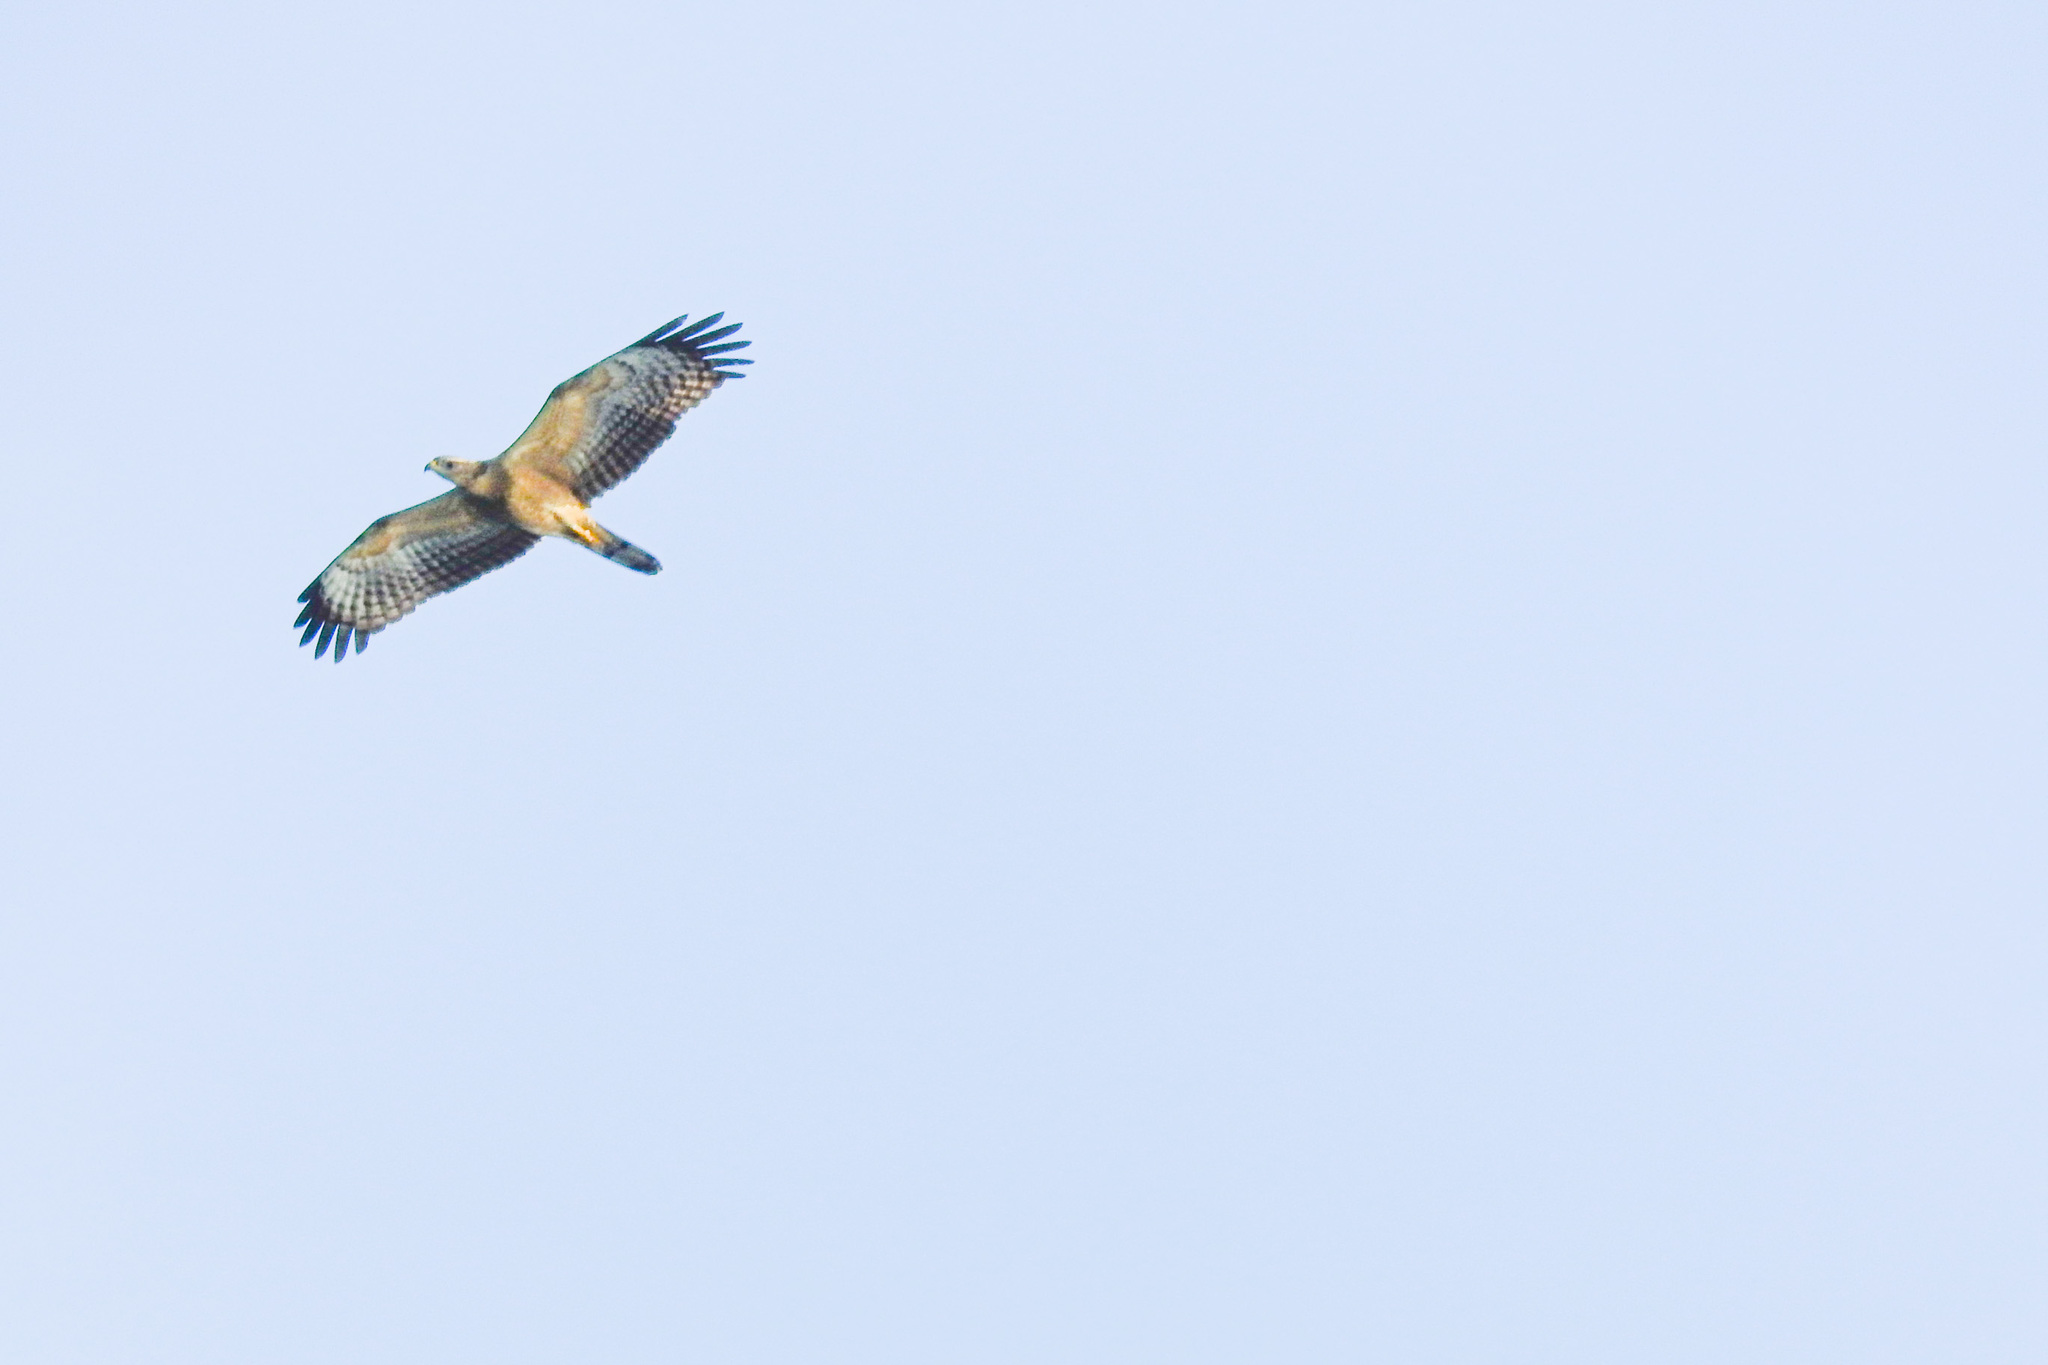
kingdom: Animalia
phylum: Chordata
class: Aves
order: Accipitriformes
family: Accipitridae
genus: Pernis
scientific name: Pernis ptilorhynchus
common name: Crested honey buzzard
